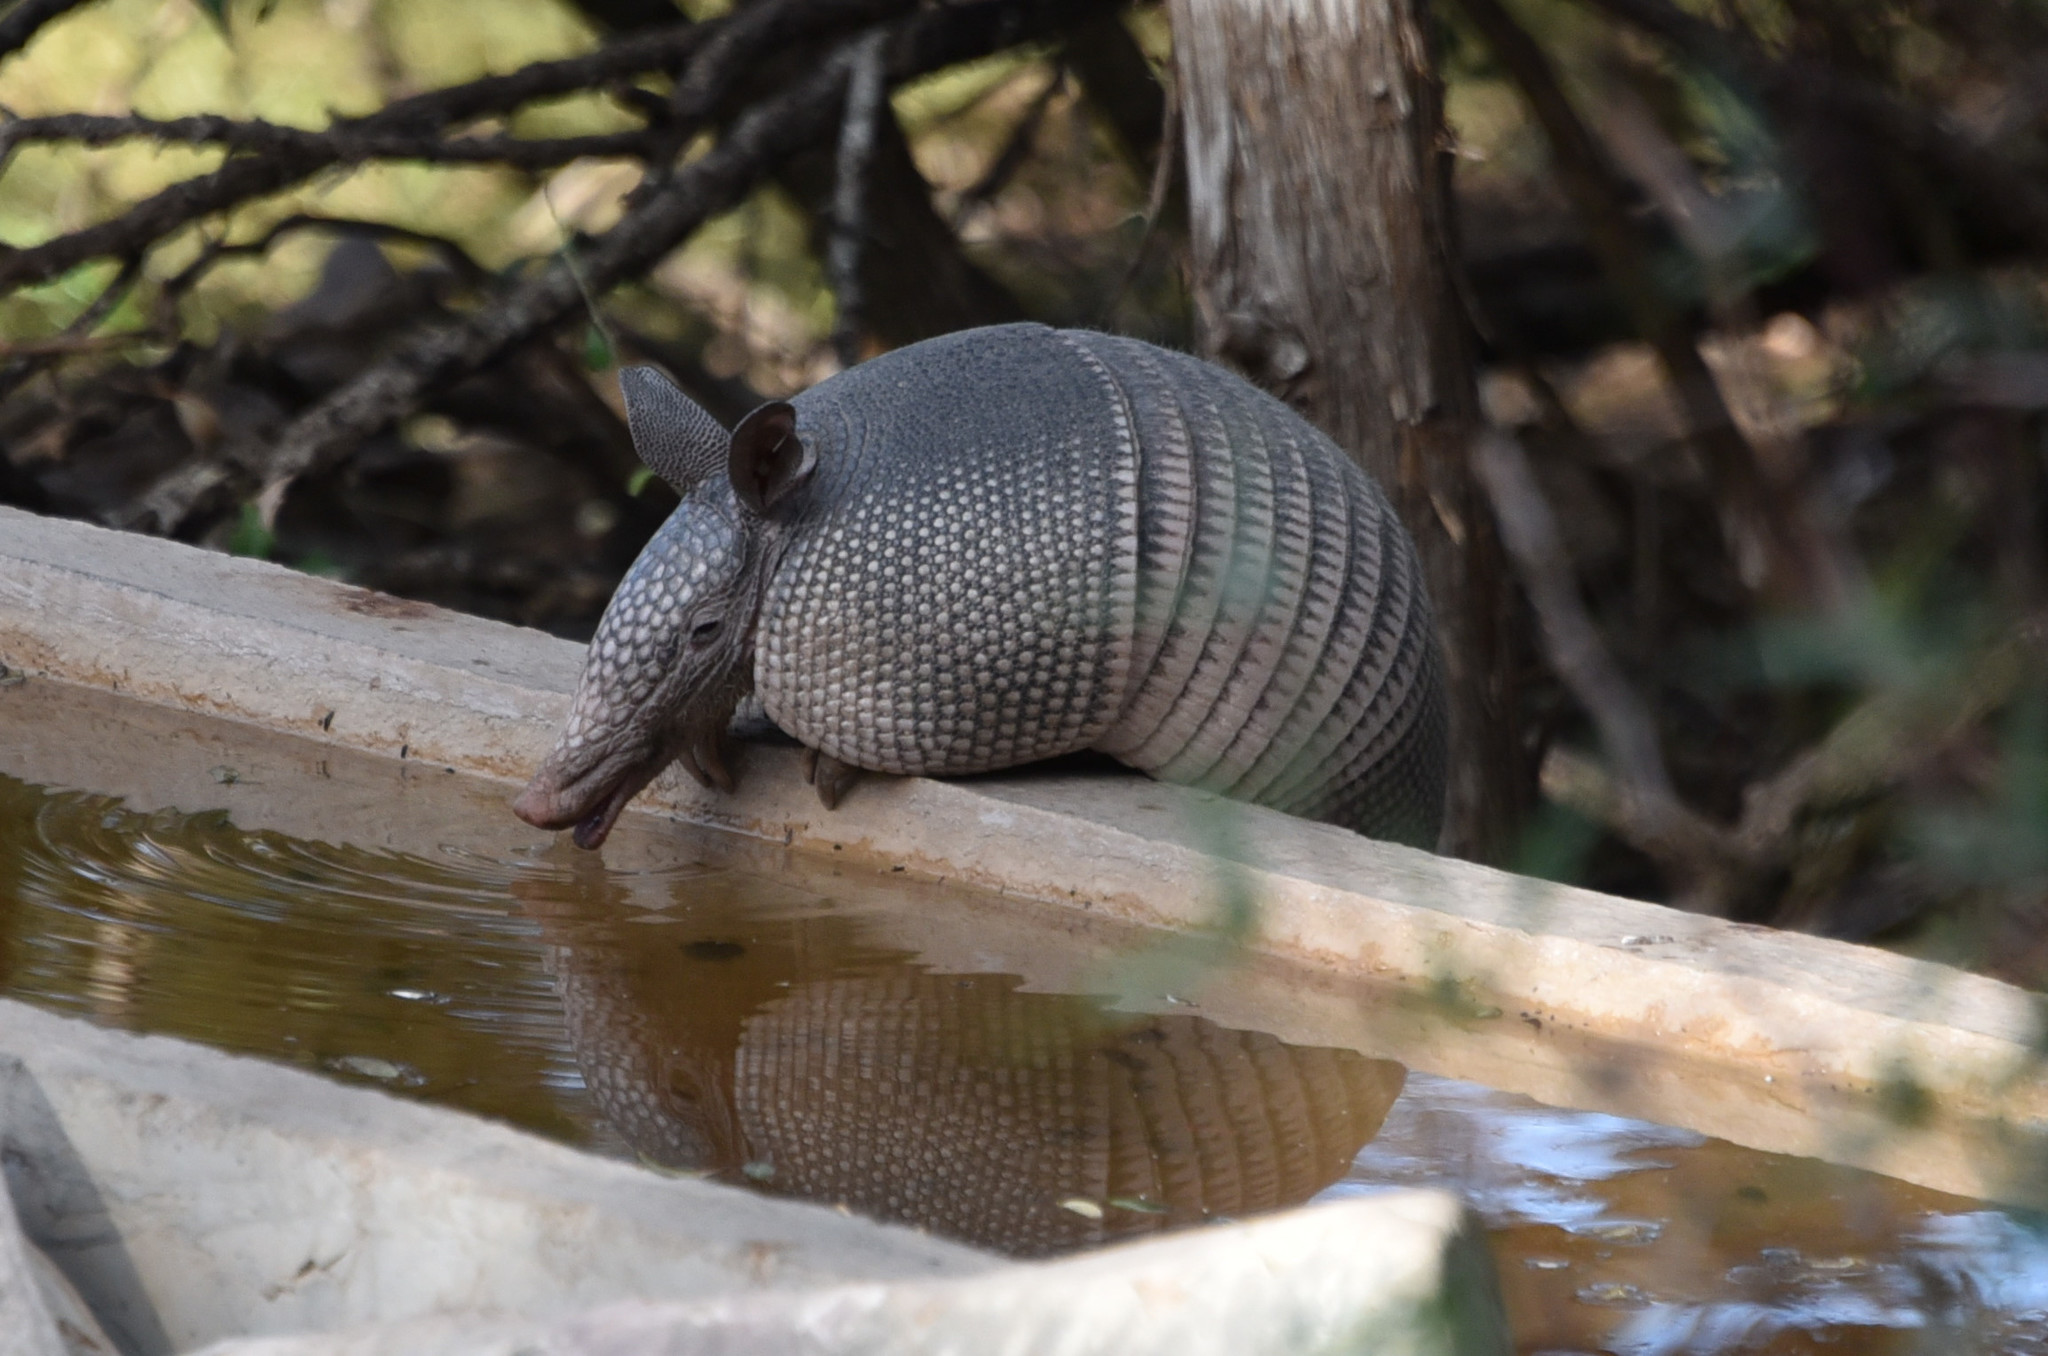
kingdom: Animalia
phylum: Chordata
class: Mammalia
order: Cingulata
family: Dasypodidae
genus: Dasypus
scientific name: Dasypus novemcinctus
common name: Nine-banded armadillo
